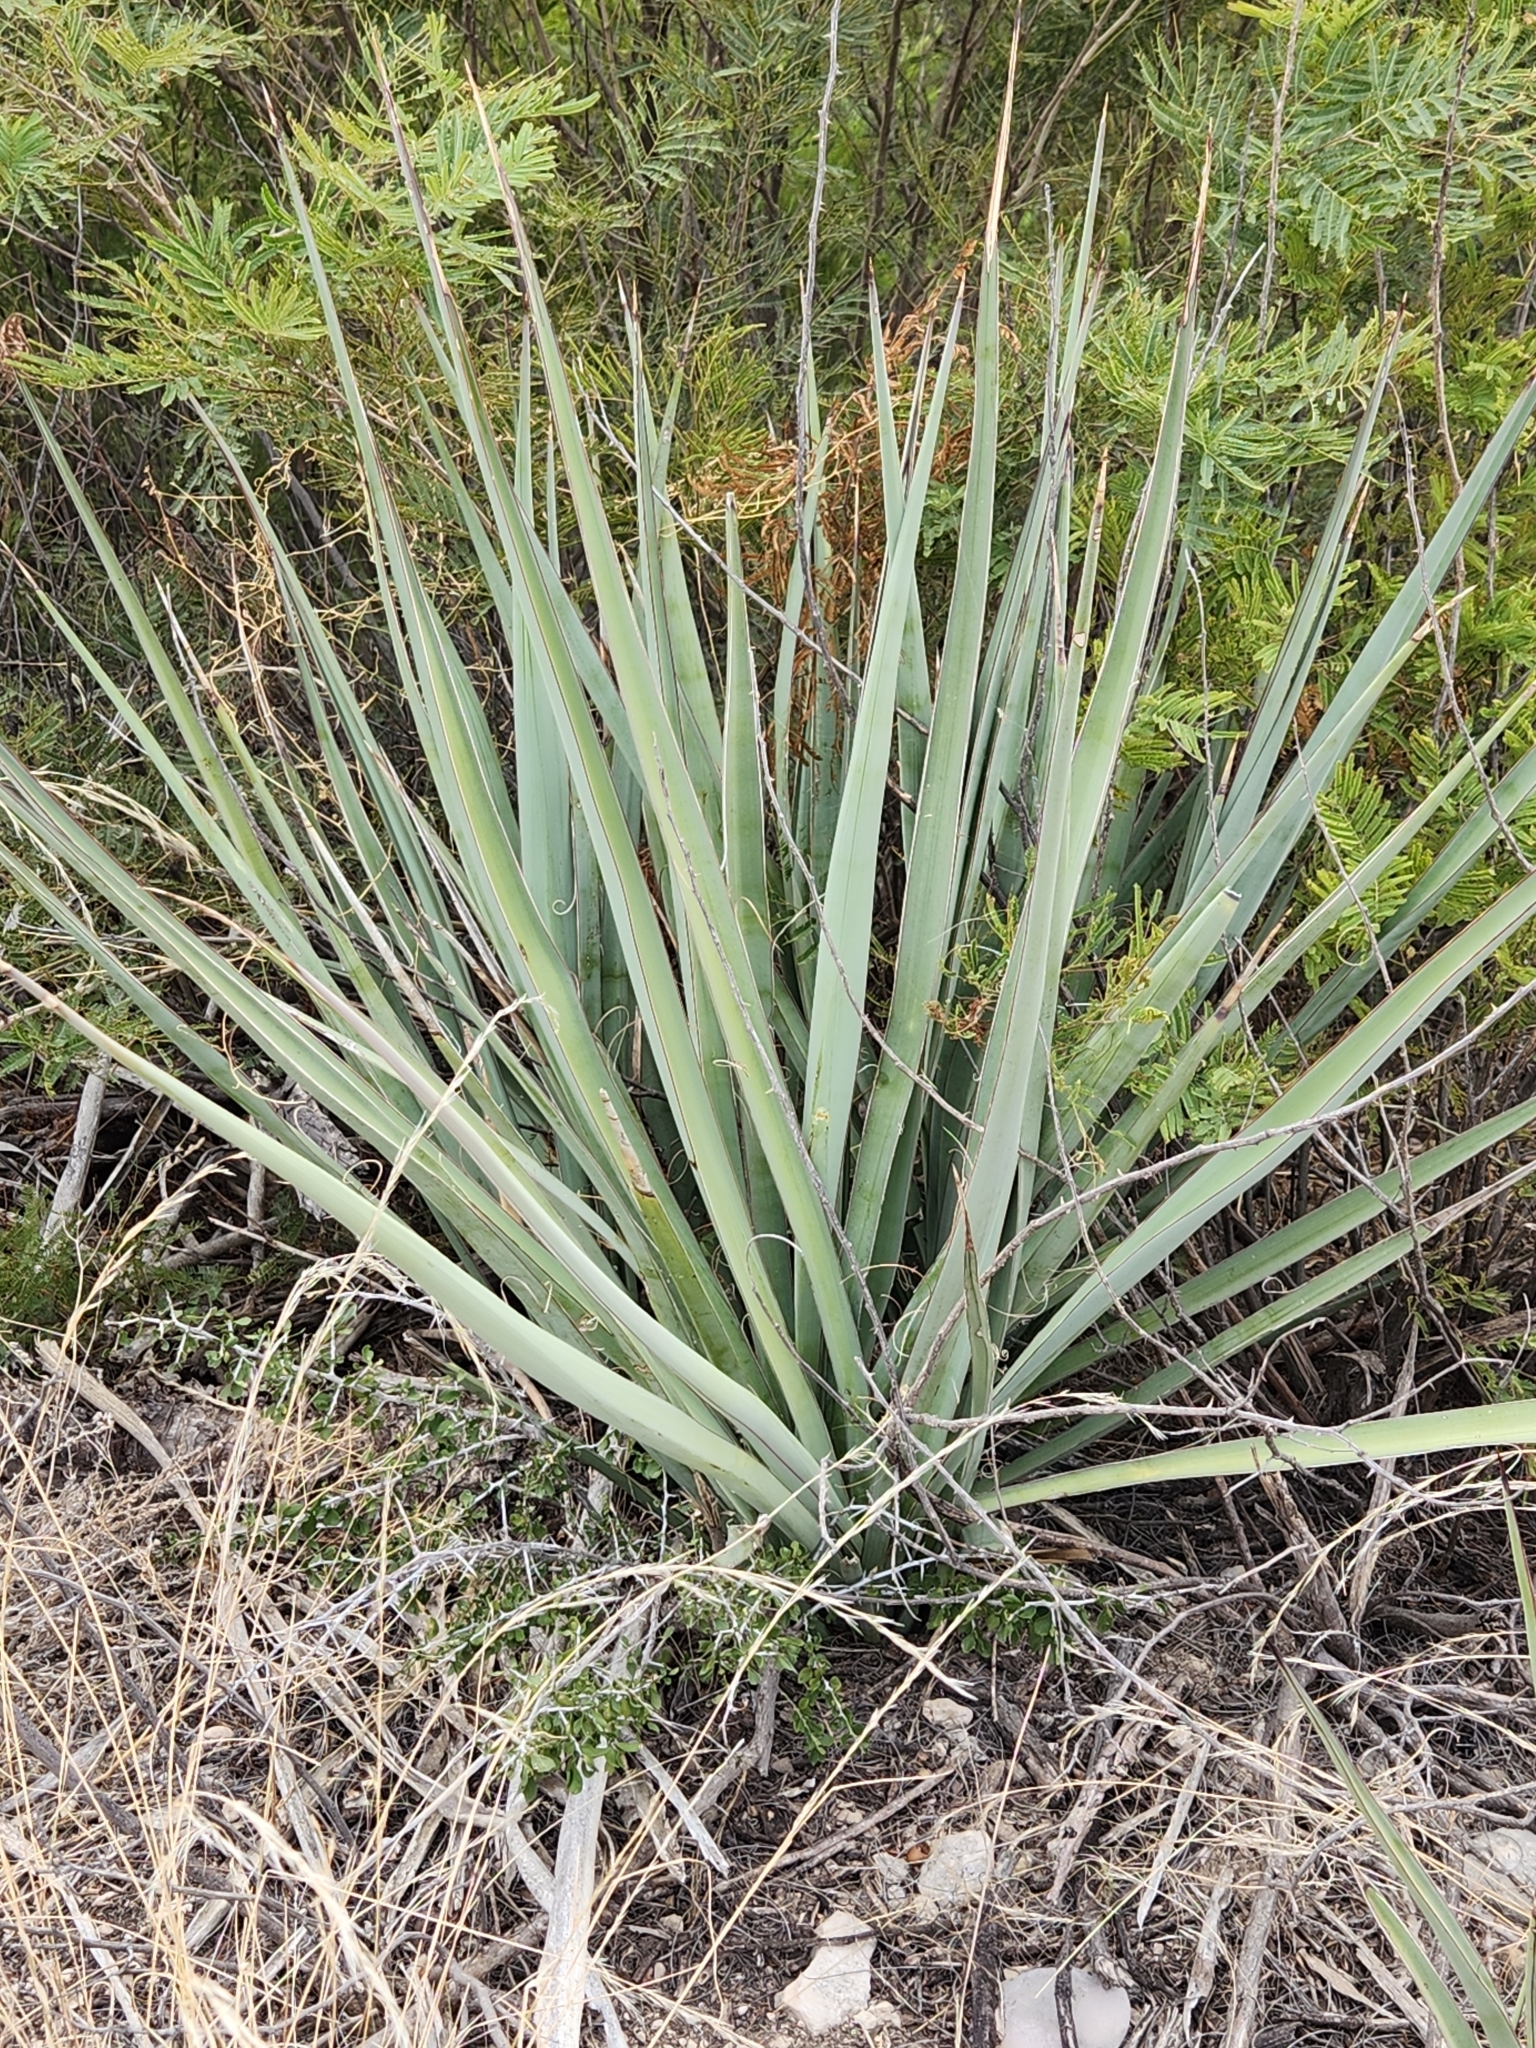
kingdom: Plantae
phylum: Tracheophyta
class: Liliopsida
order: Asparagales
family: Asparagaceae
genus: Yucca
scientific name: Yucca treculiana
